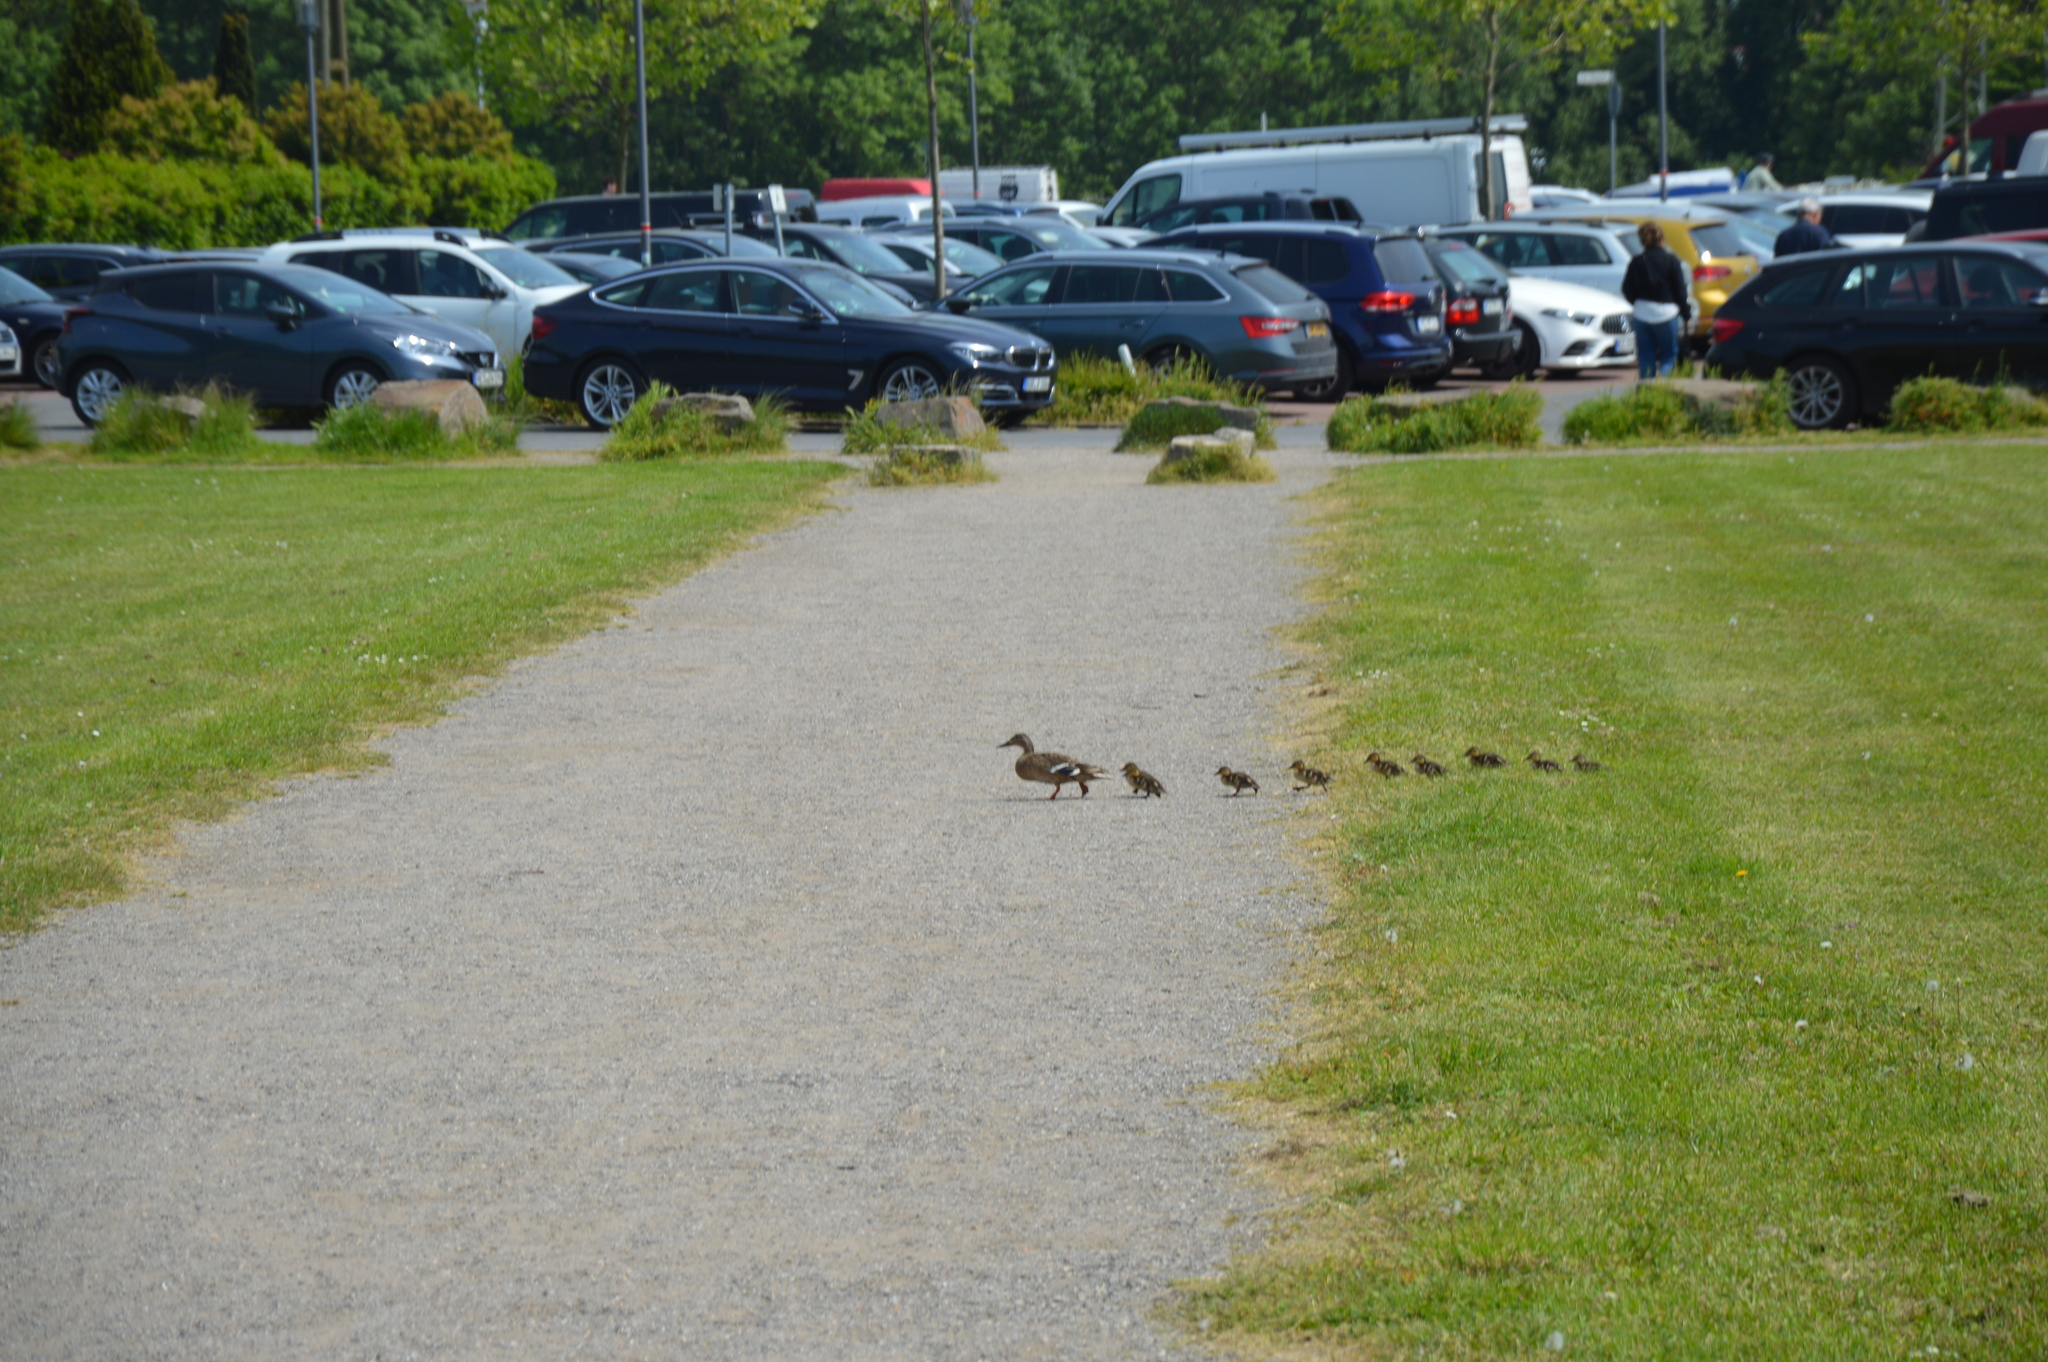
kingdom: Animalia
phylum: Chordata
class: Aves
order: Anseriformes
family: Anatidae
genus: Anas
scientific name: Anas platyrhynchos
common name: Mallard
